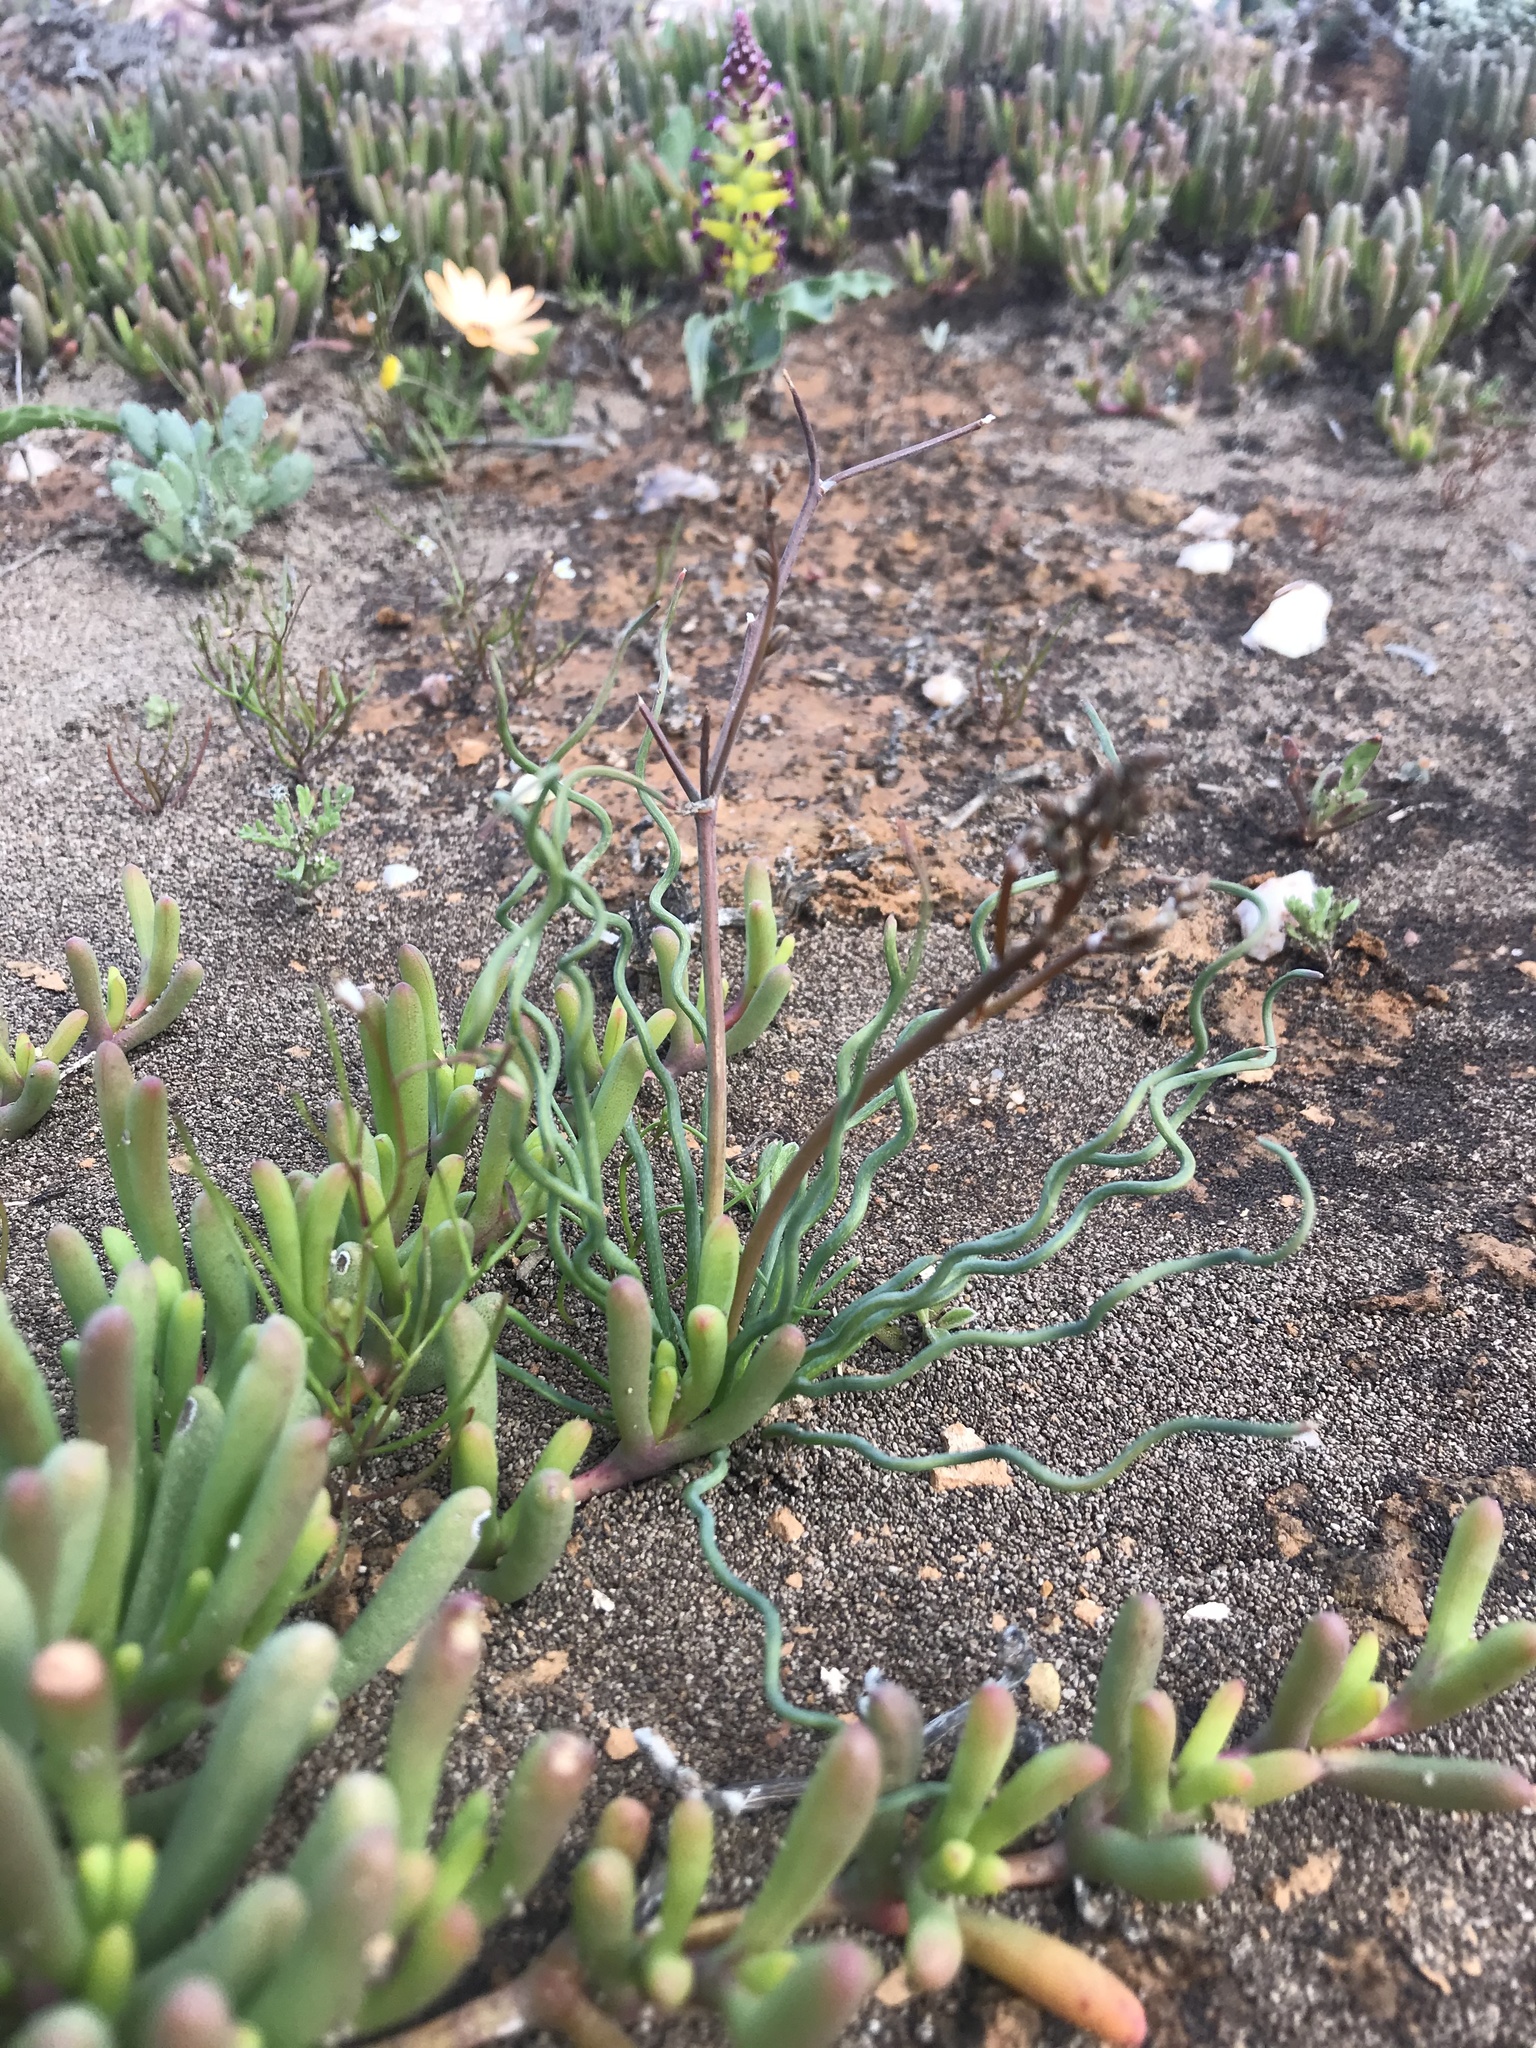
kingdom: Plantae
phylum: Tracheophyta
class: Liliopsida
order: Asparagales
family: Asphodelaceae
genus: Trachyandra
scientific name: Trachyandra jacquiniana
